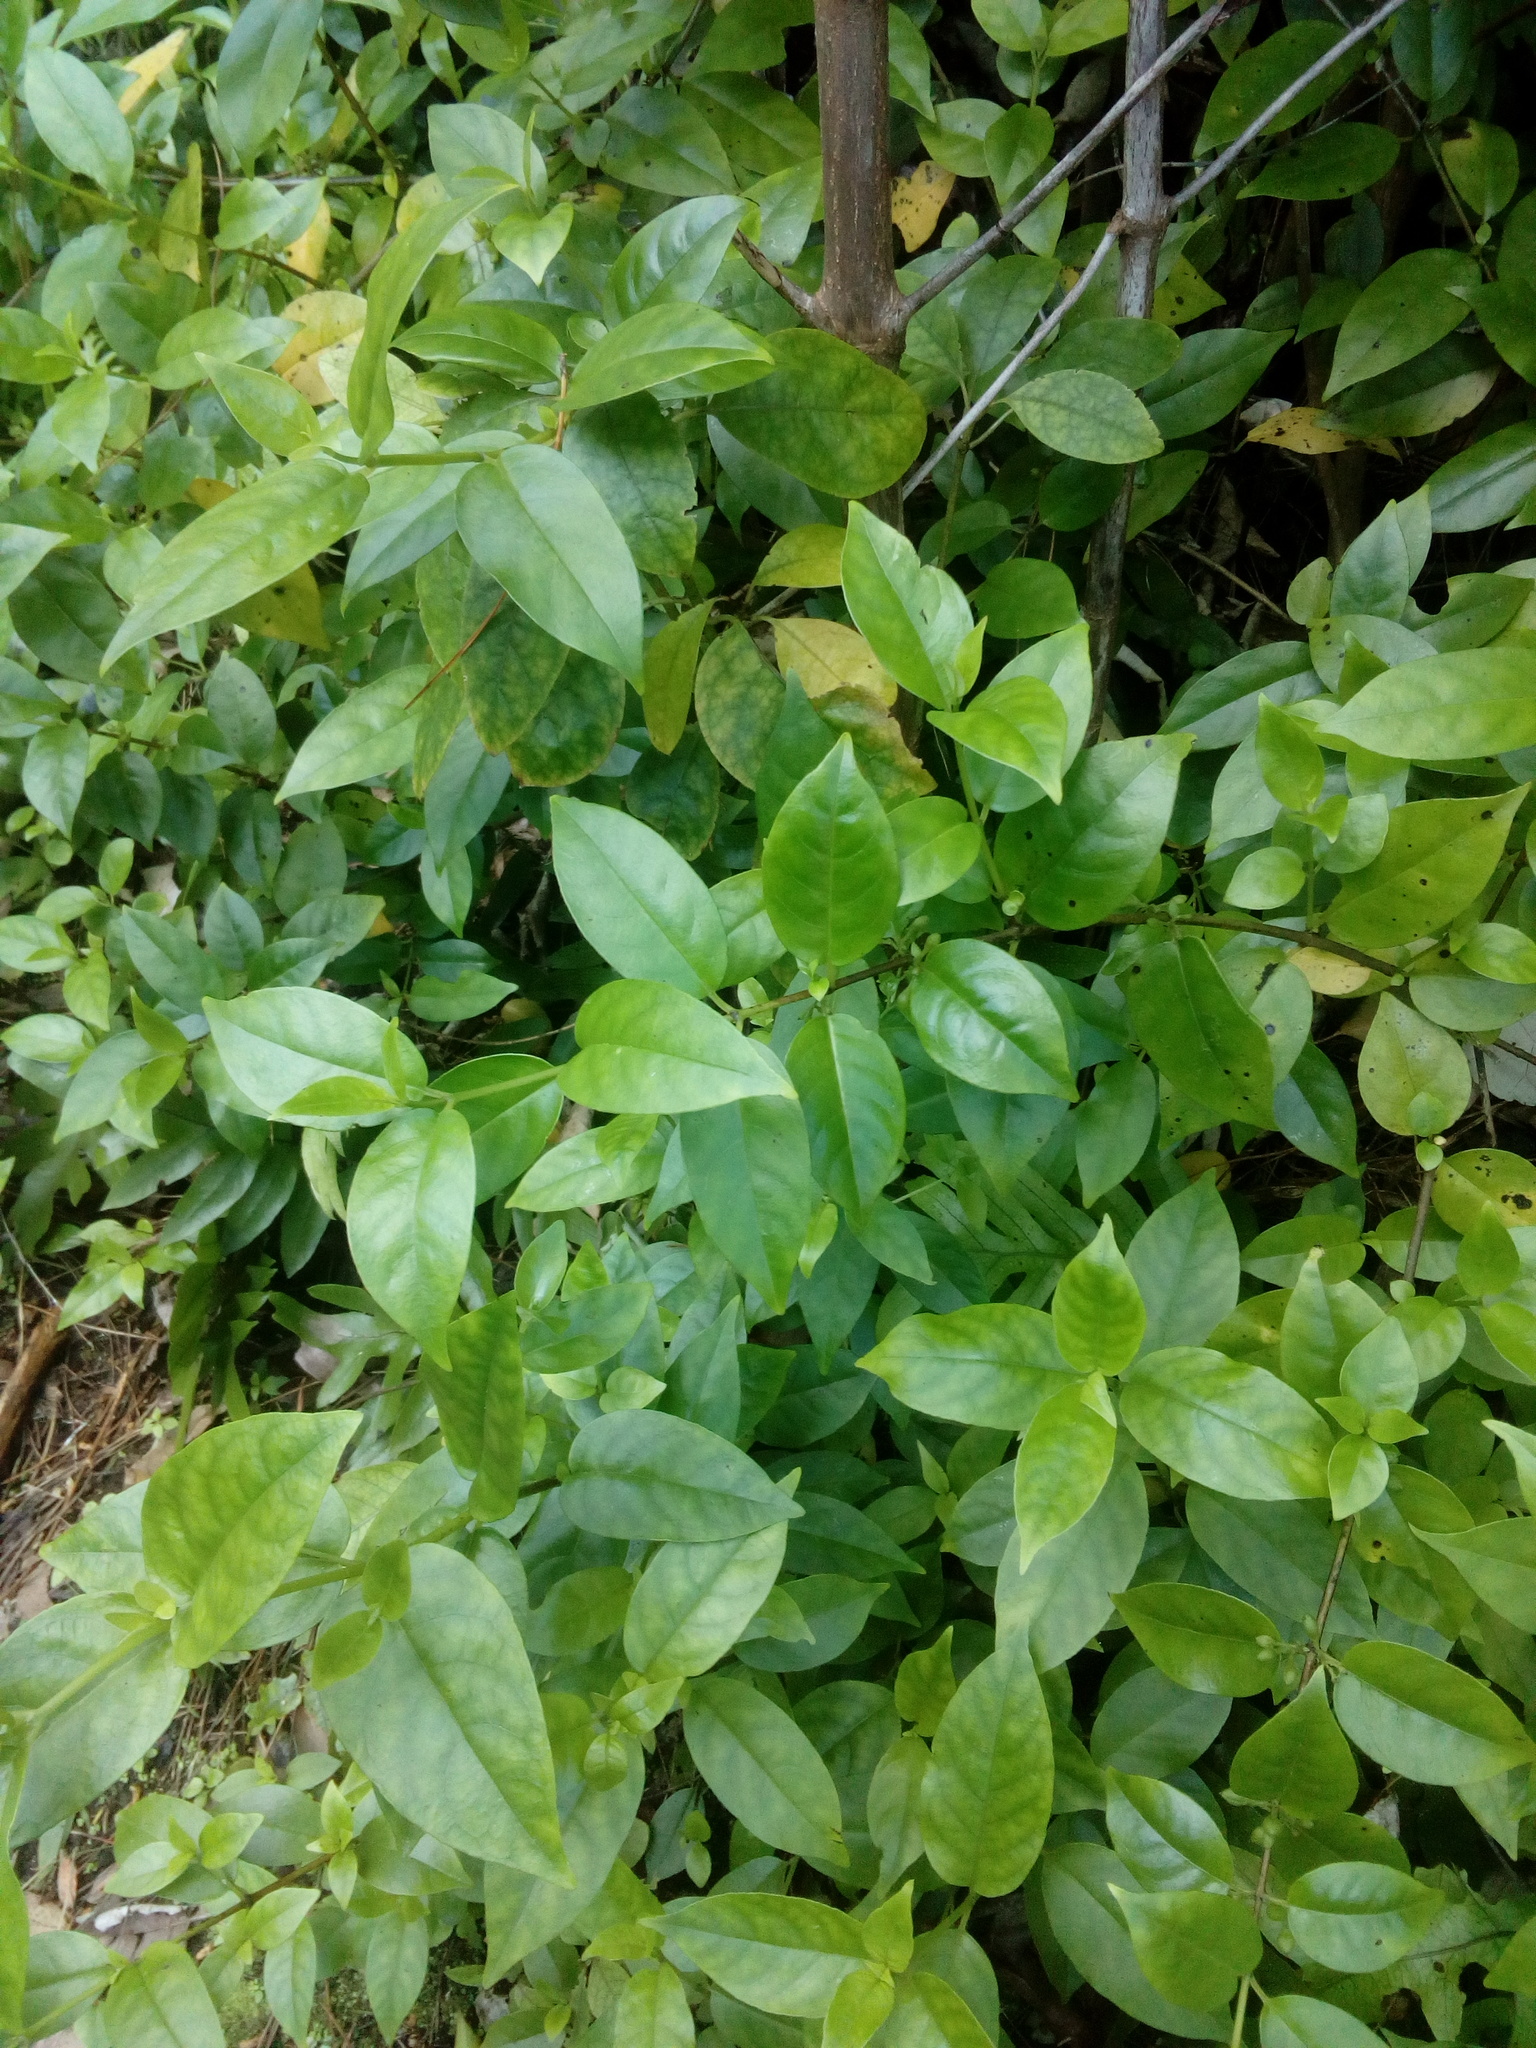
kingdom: Plantae
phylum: Tracheophyta
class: Magnoliopsida
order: Gentianales
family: Loganiaceae
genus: Geniostoma
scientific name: Geniostoma ligustrifolium
